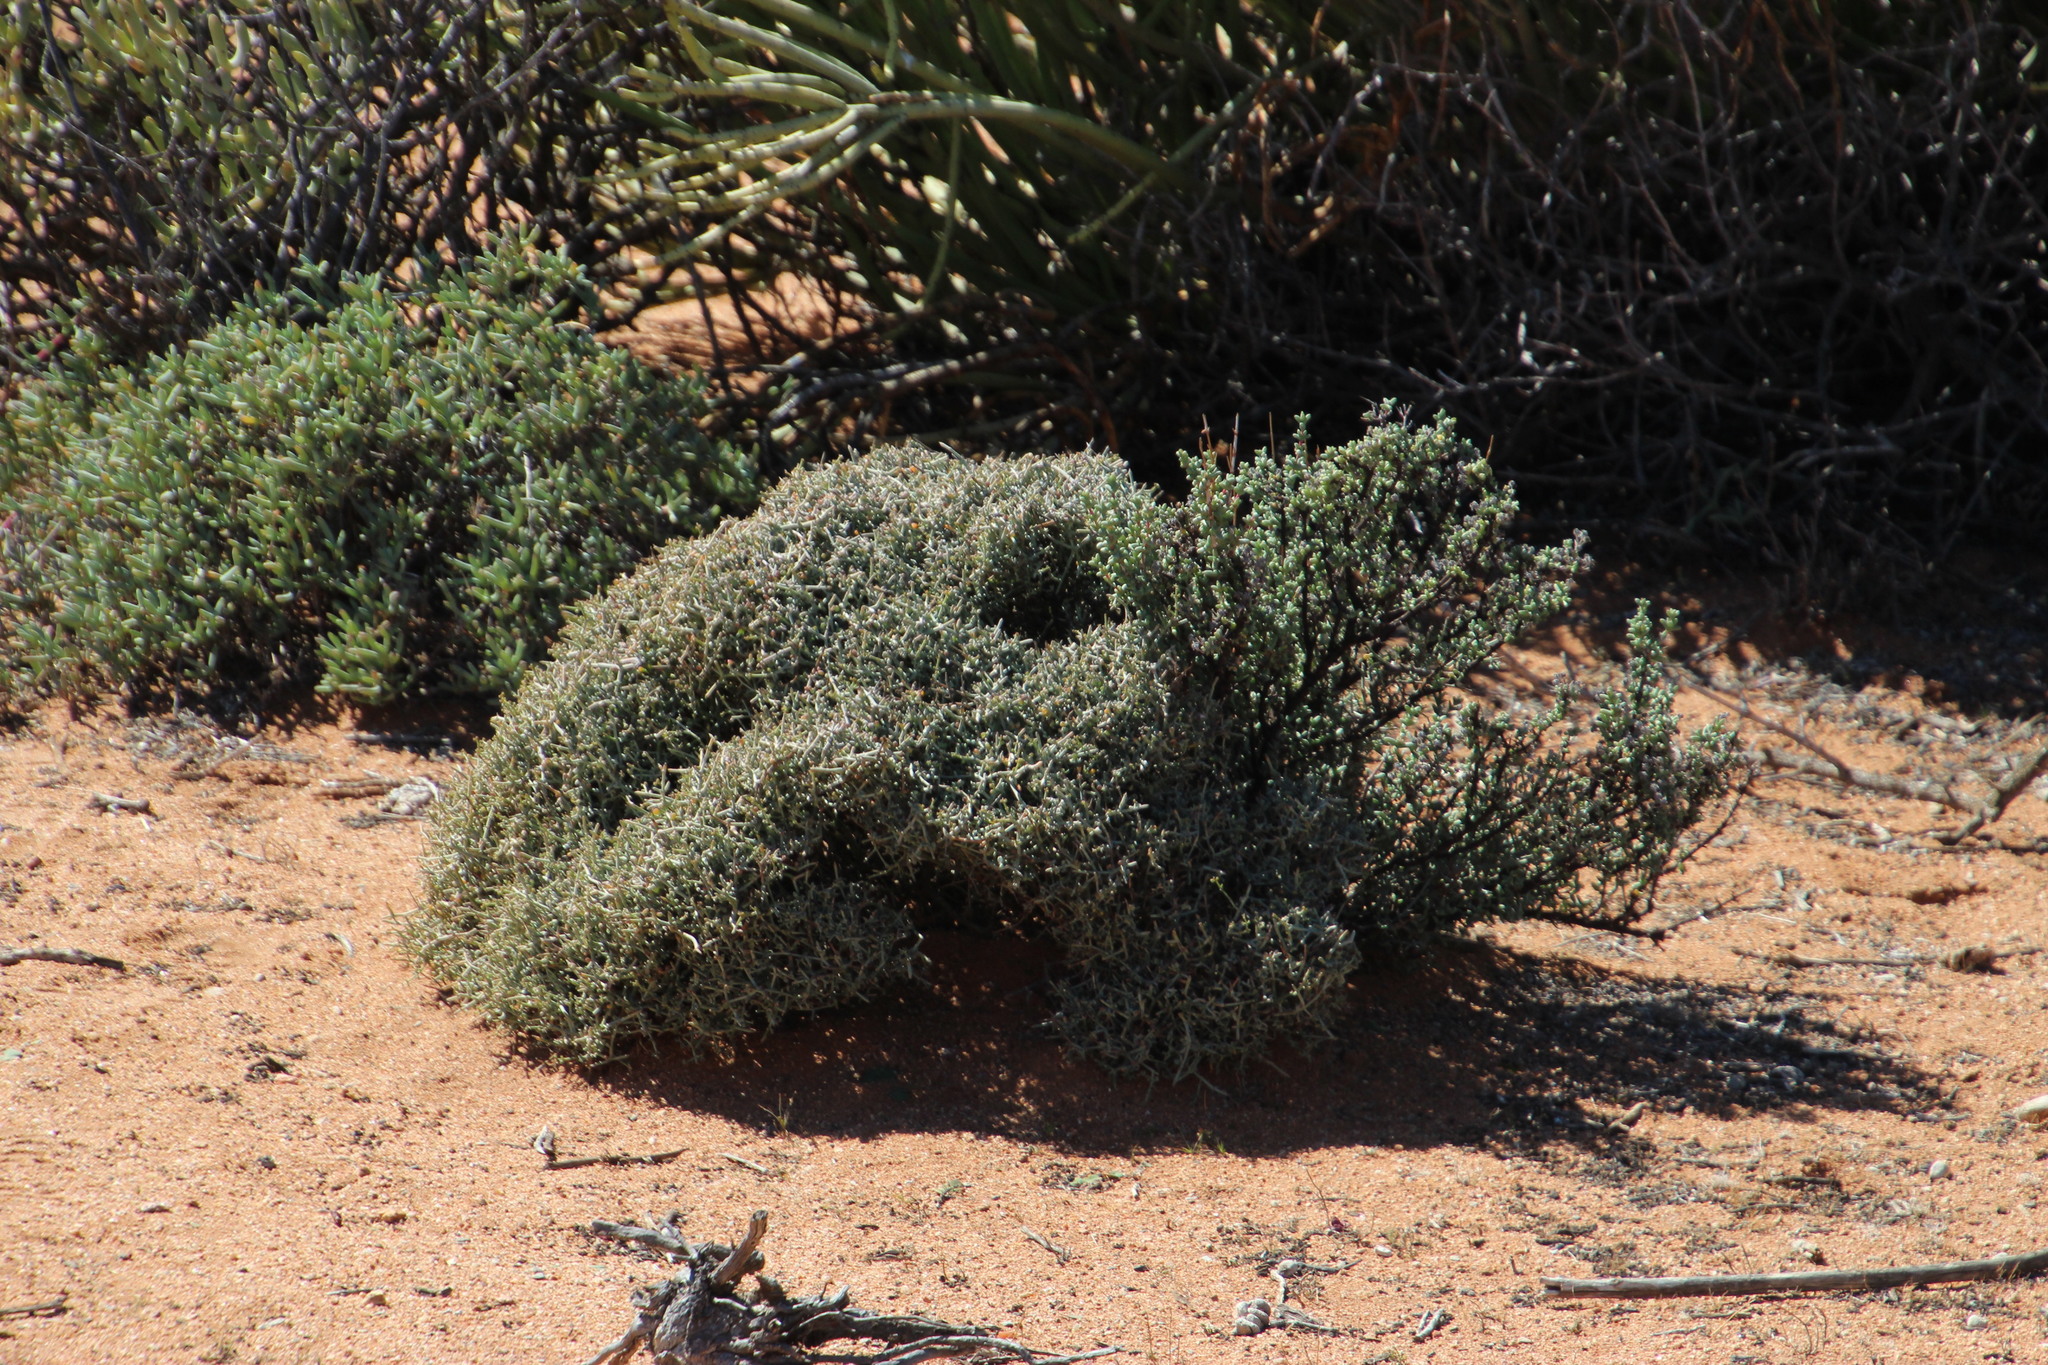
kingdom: Plantae
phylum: Tracheophyta
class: Magnoliopsida
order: Zygophyllales
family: Zygophyllaceae
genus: Tetraena
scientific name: Tetraena retrofracta
